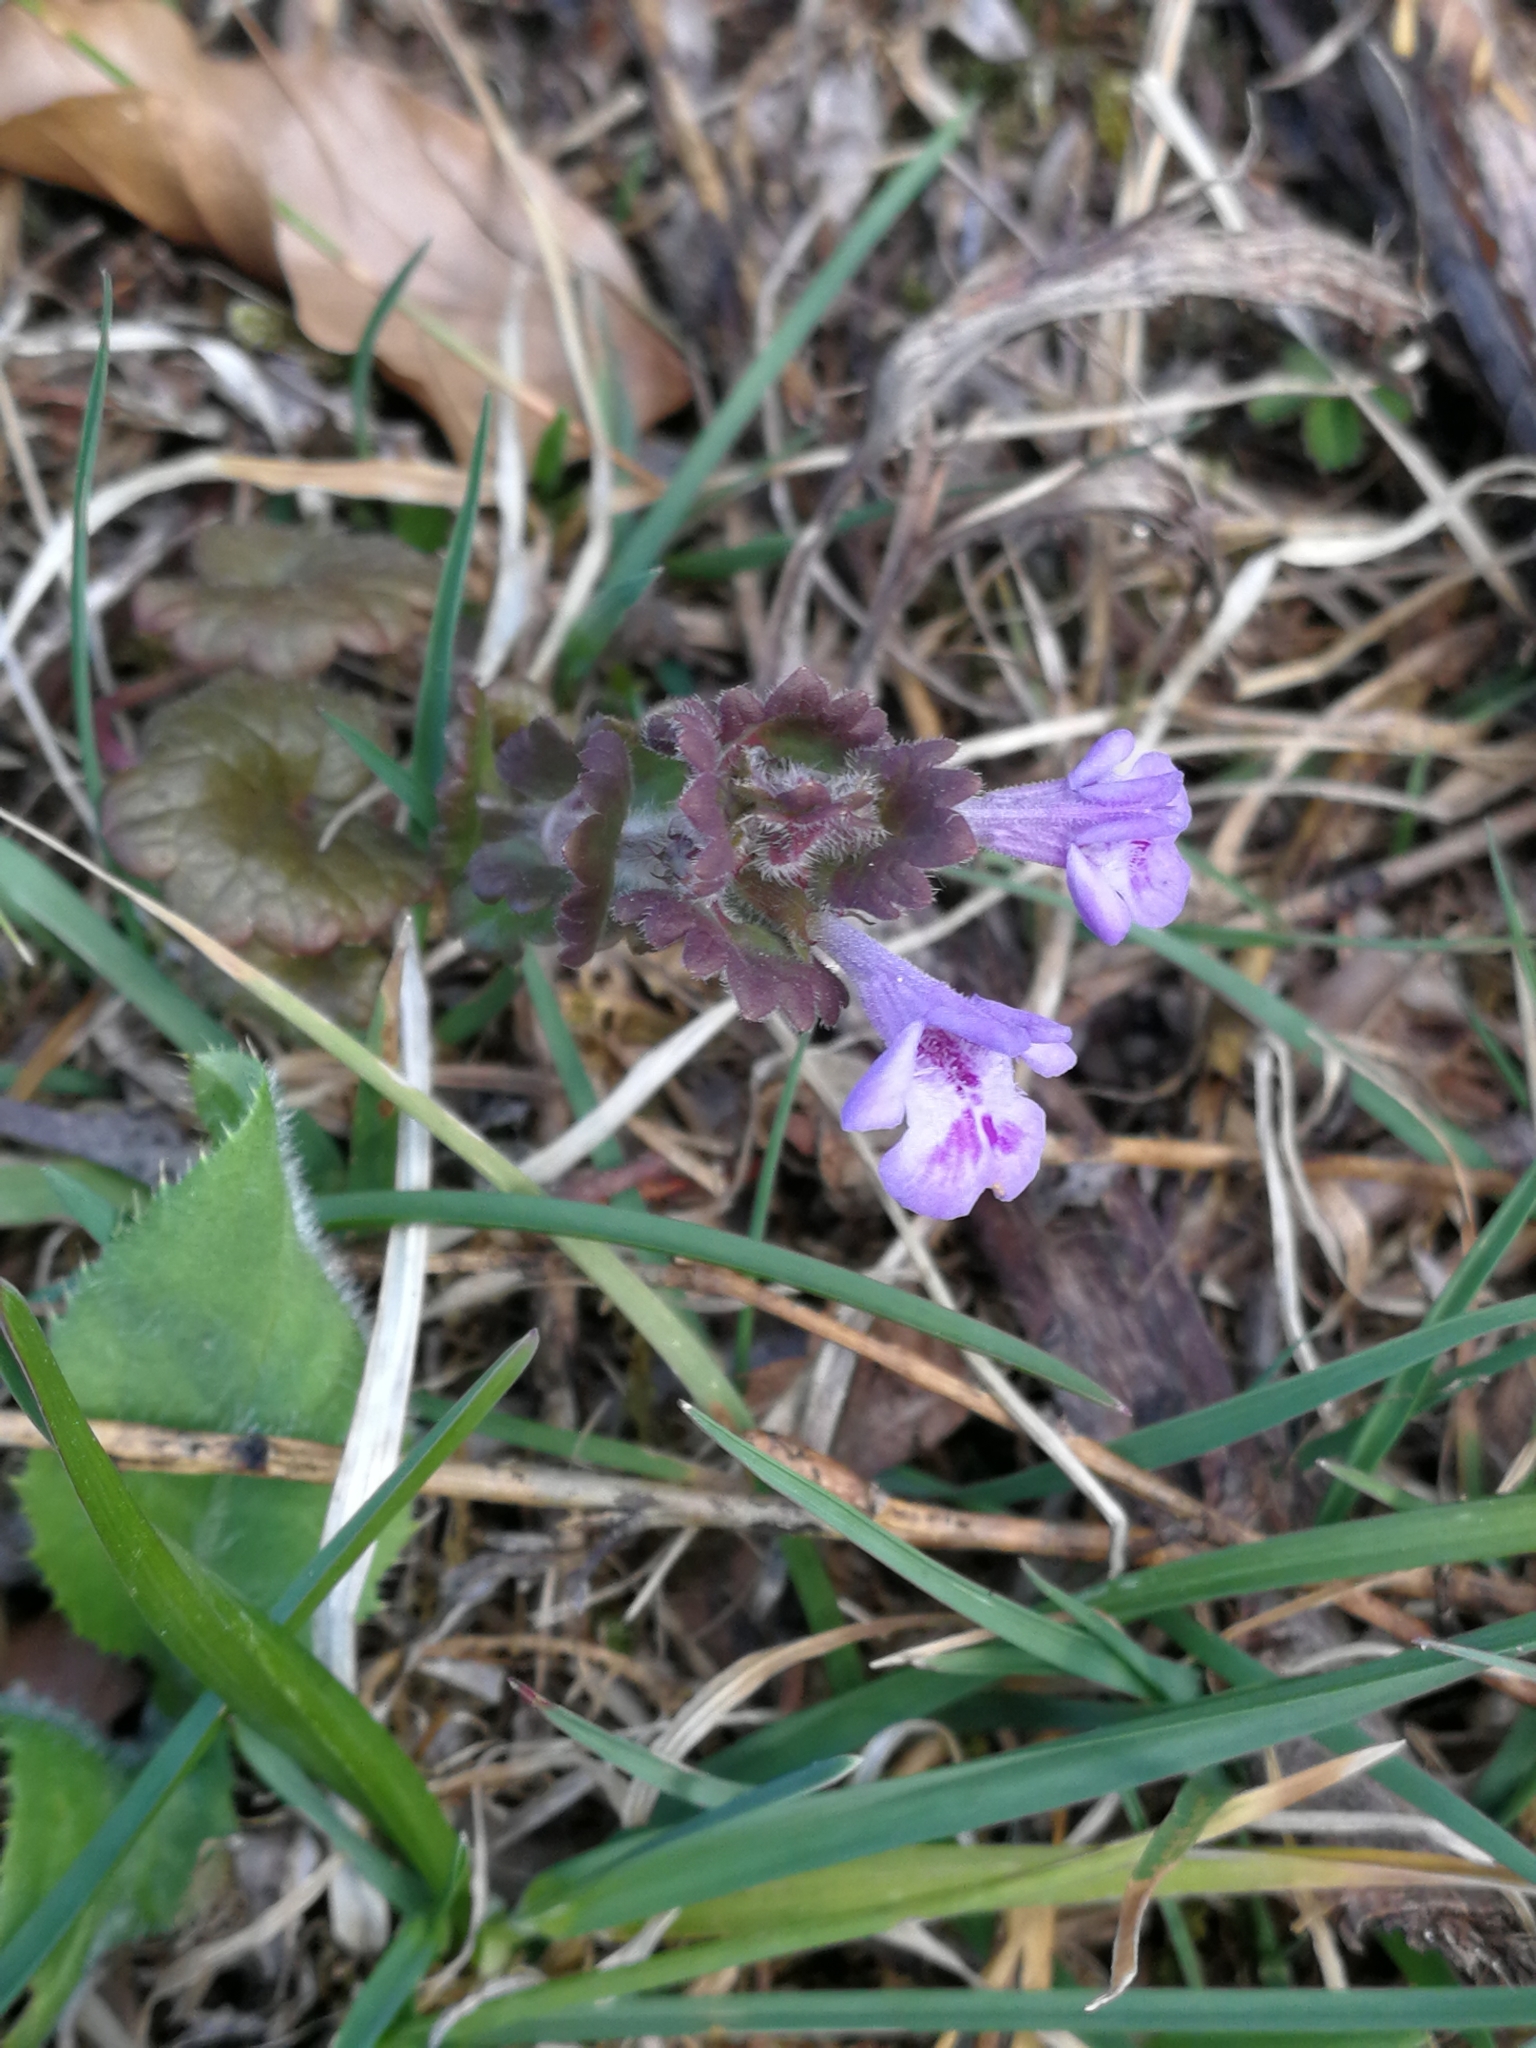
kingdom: Plantae
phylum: Tracheophyta
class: Magnoliopsida
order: Lamiales
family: Lamiaceae
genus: Glechoma
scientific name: Glechoma hederacea
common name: Ground ivy
